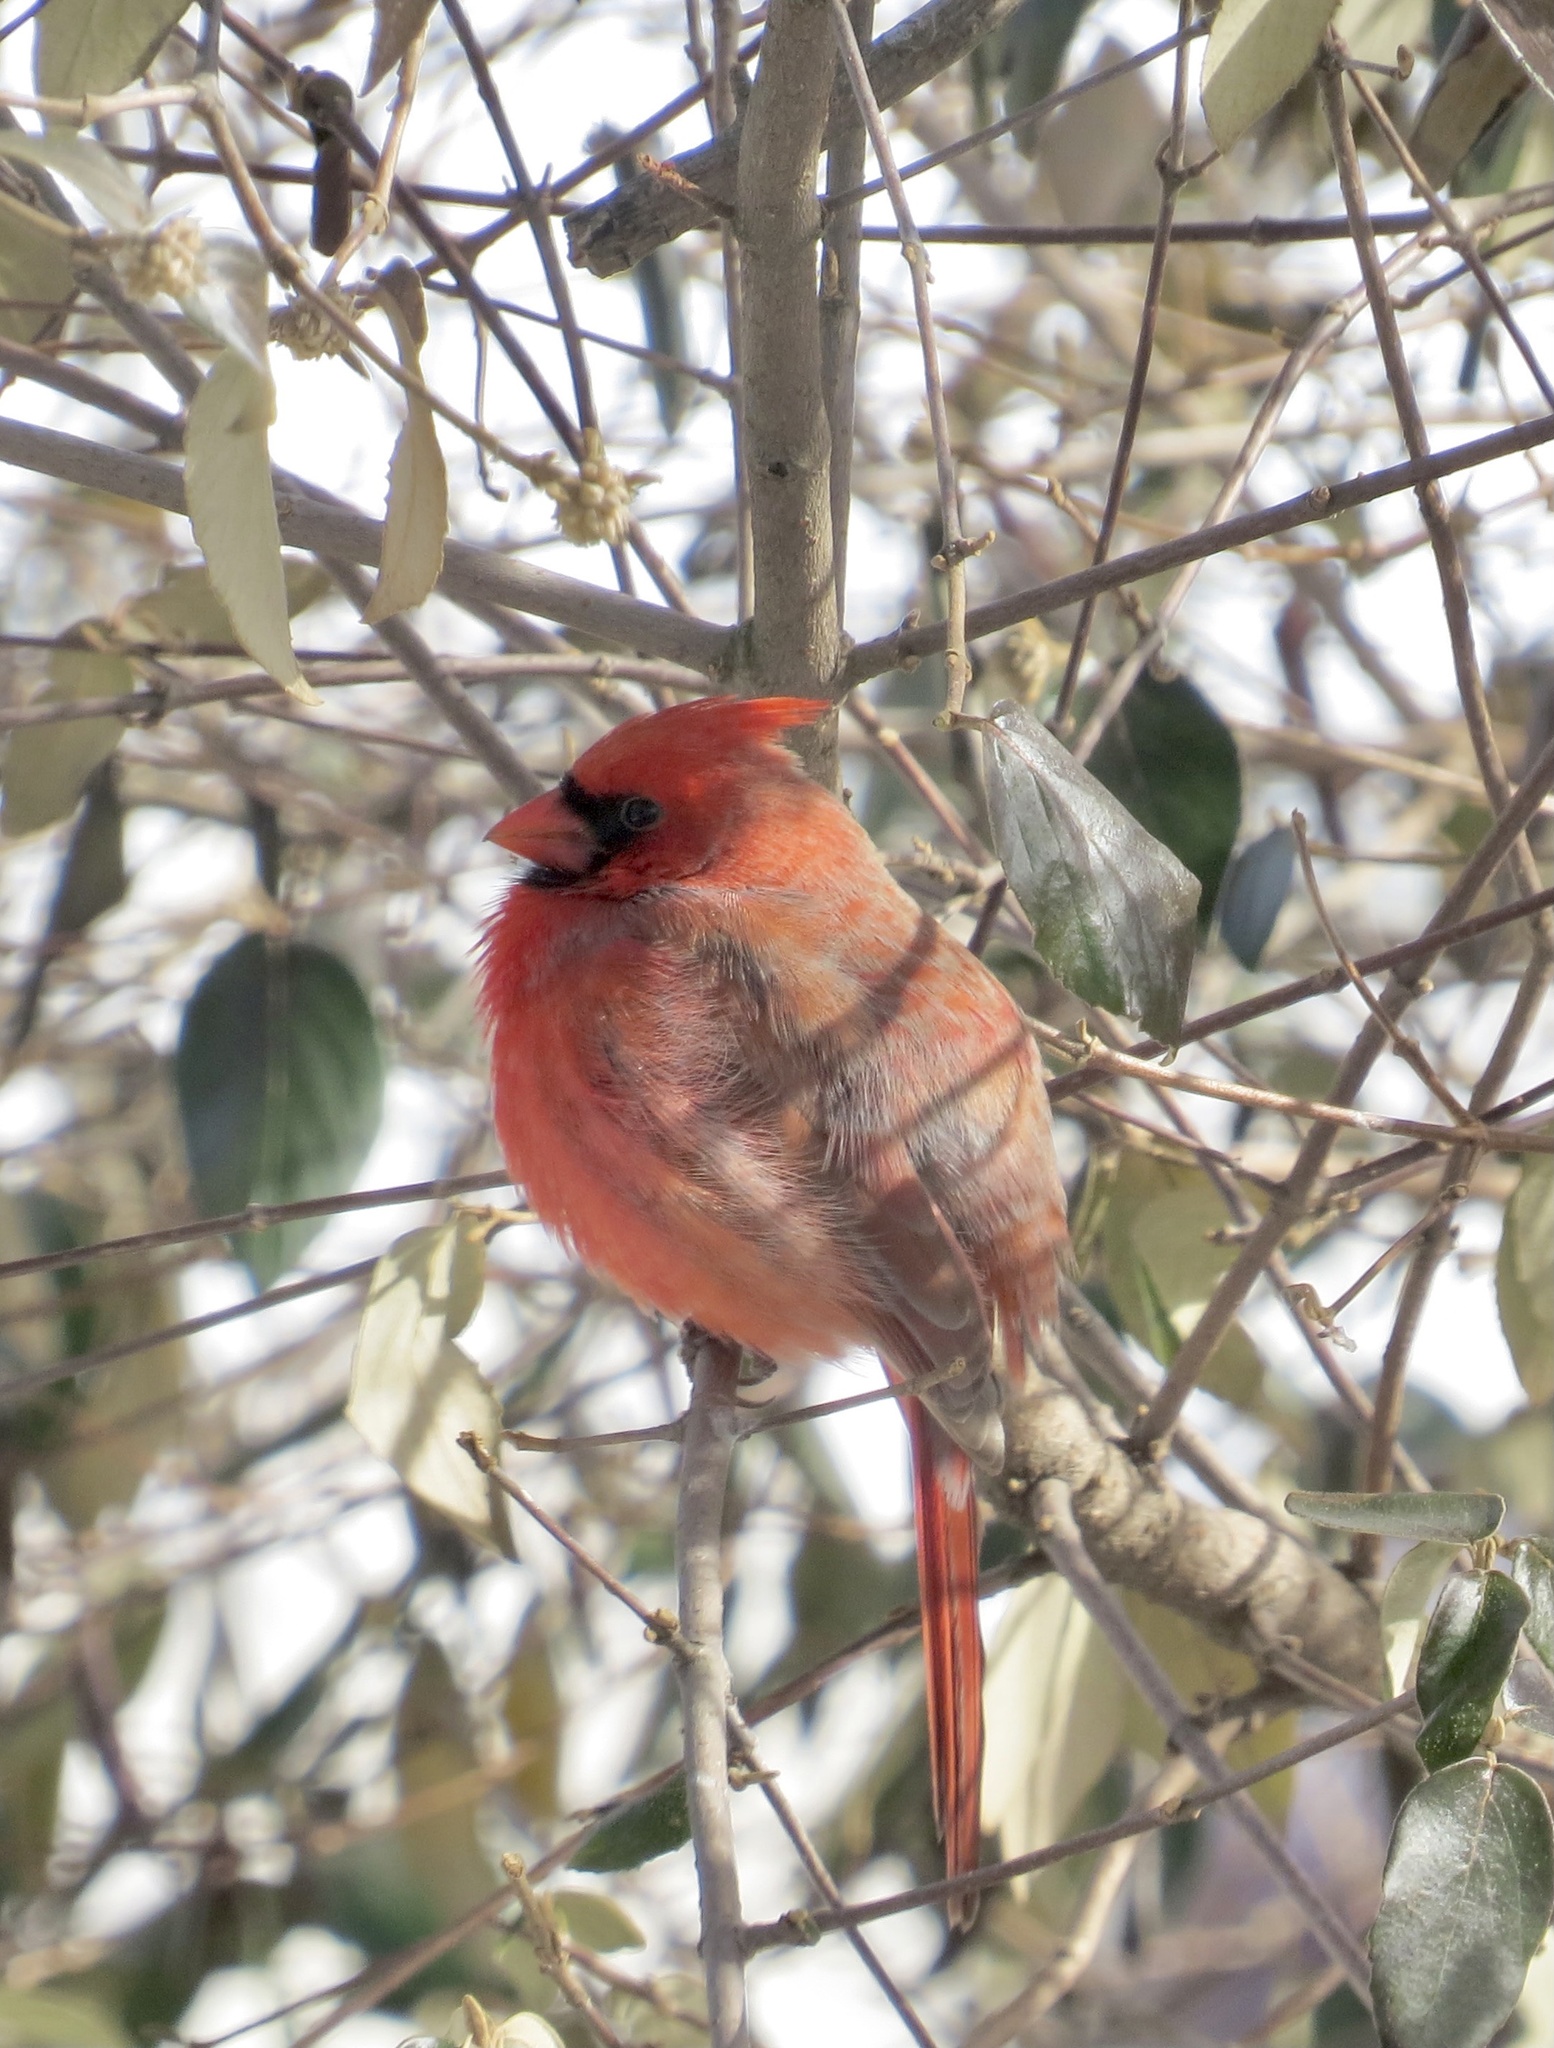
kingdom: Animalia
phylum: Chordata
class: Aves
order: Passeriformes
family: Cardinalidae
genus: Cardinalis
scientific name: Cardinalis cardinalis
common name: Northern cardinal
